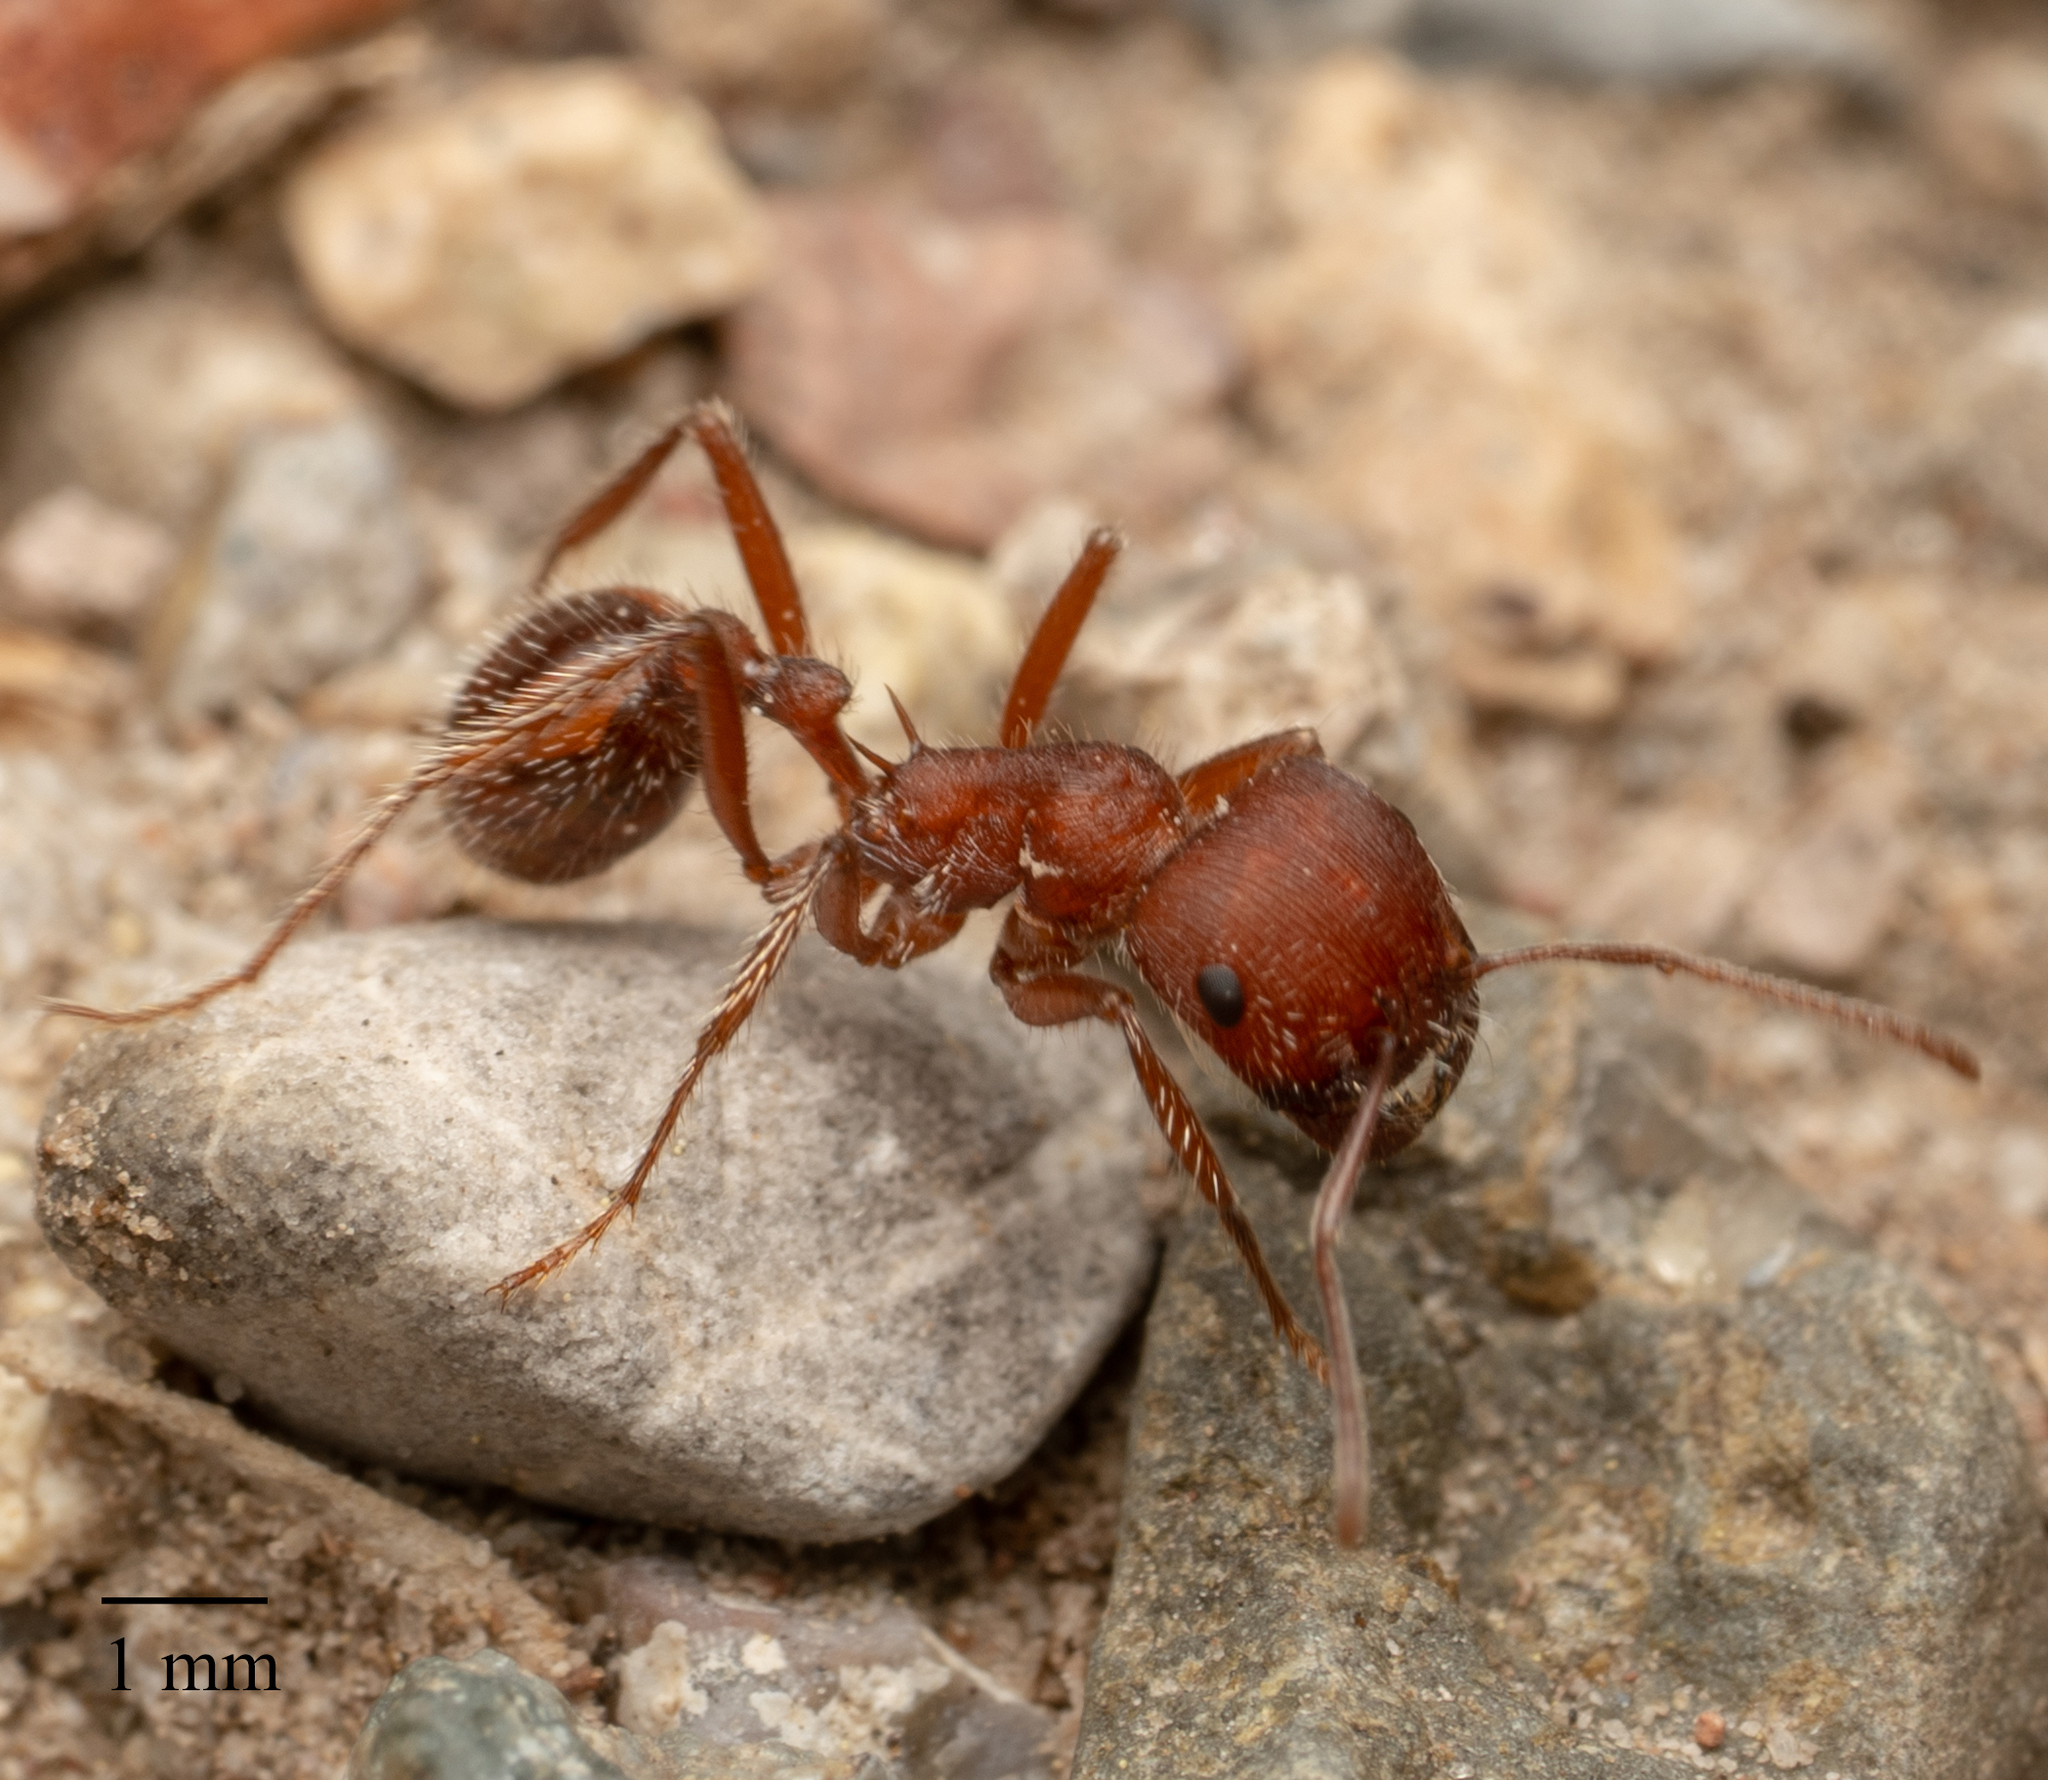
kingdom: Animalia
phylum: Arthropoda
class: Insecta
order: Hymenoptera
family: Formicidae
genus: Pogonomyrmex
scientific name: Pogonomyrmex occidentalis
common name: Western harvester ant
